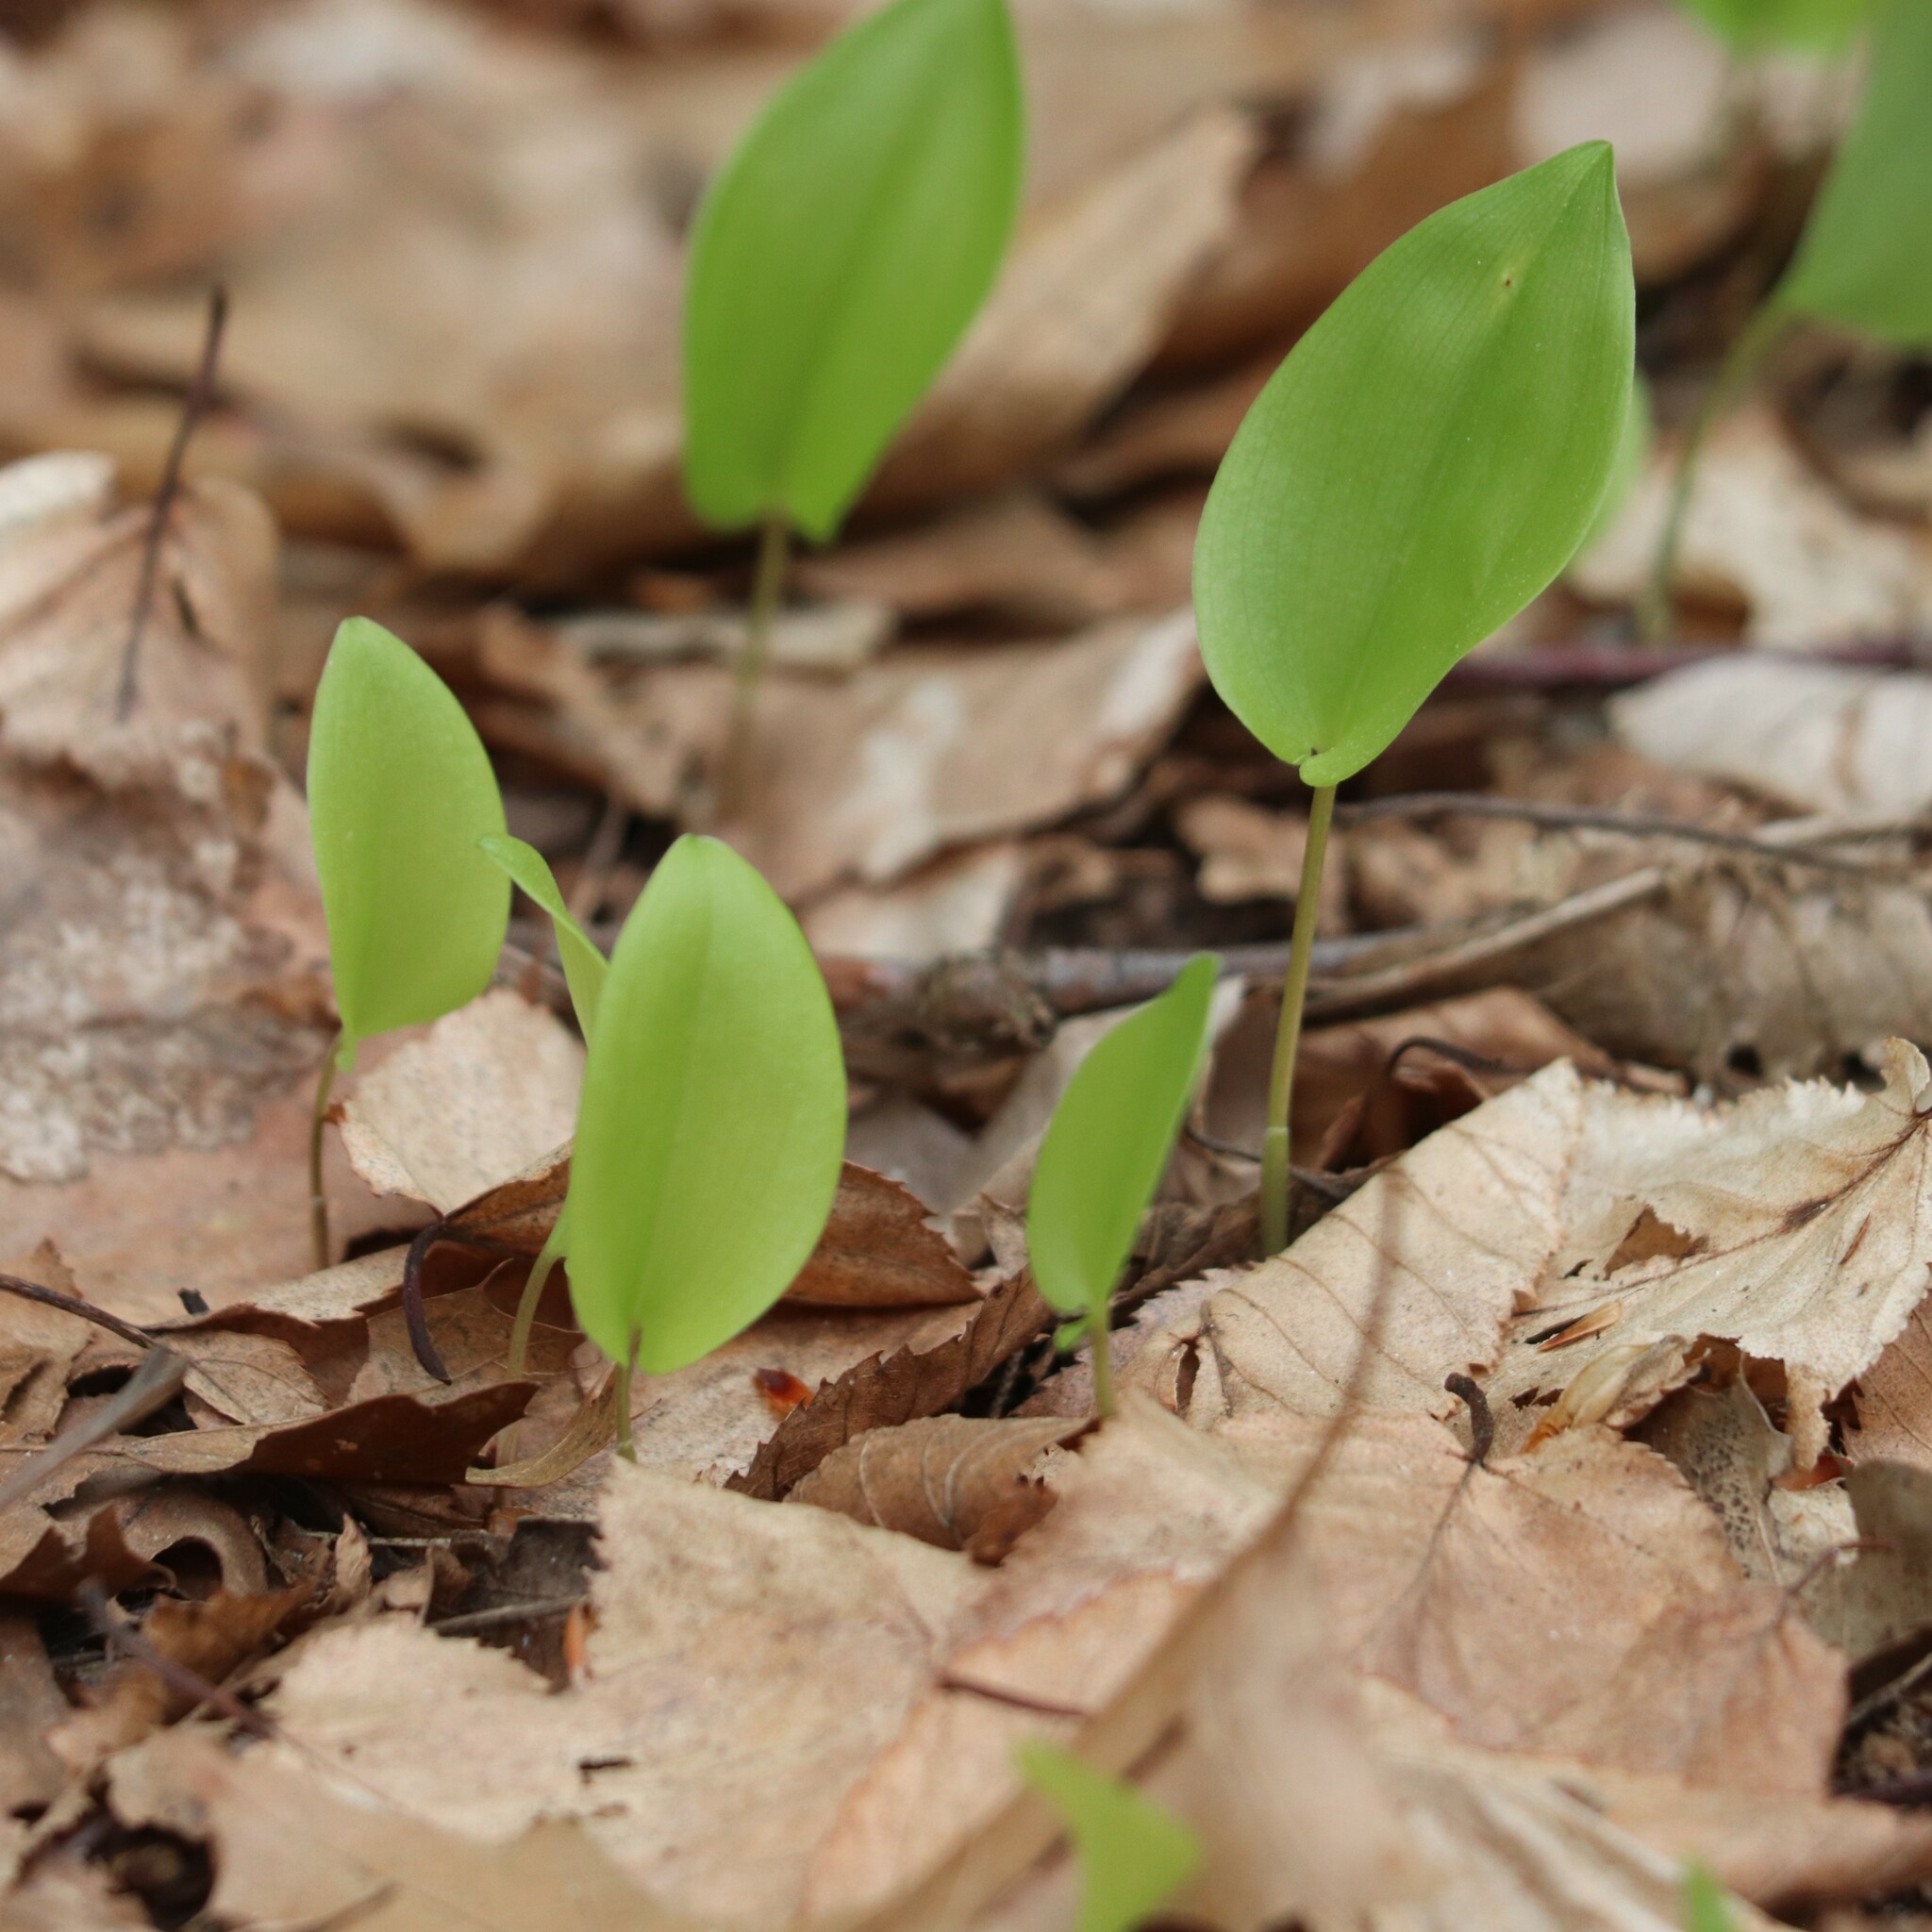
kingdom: Plantae
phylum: Tracheophyta
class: Liliopsida
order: Asparagales
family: Asparagaceae
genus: Maianthemum
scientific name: Maianthemum canadense
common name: False lily-of-the-valley
